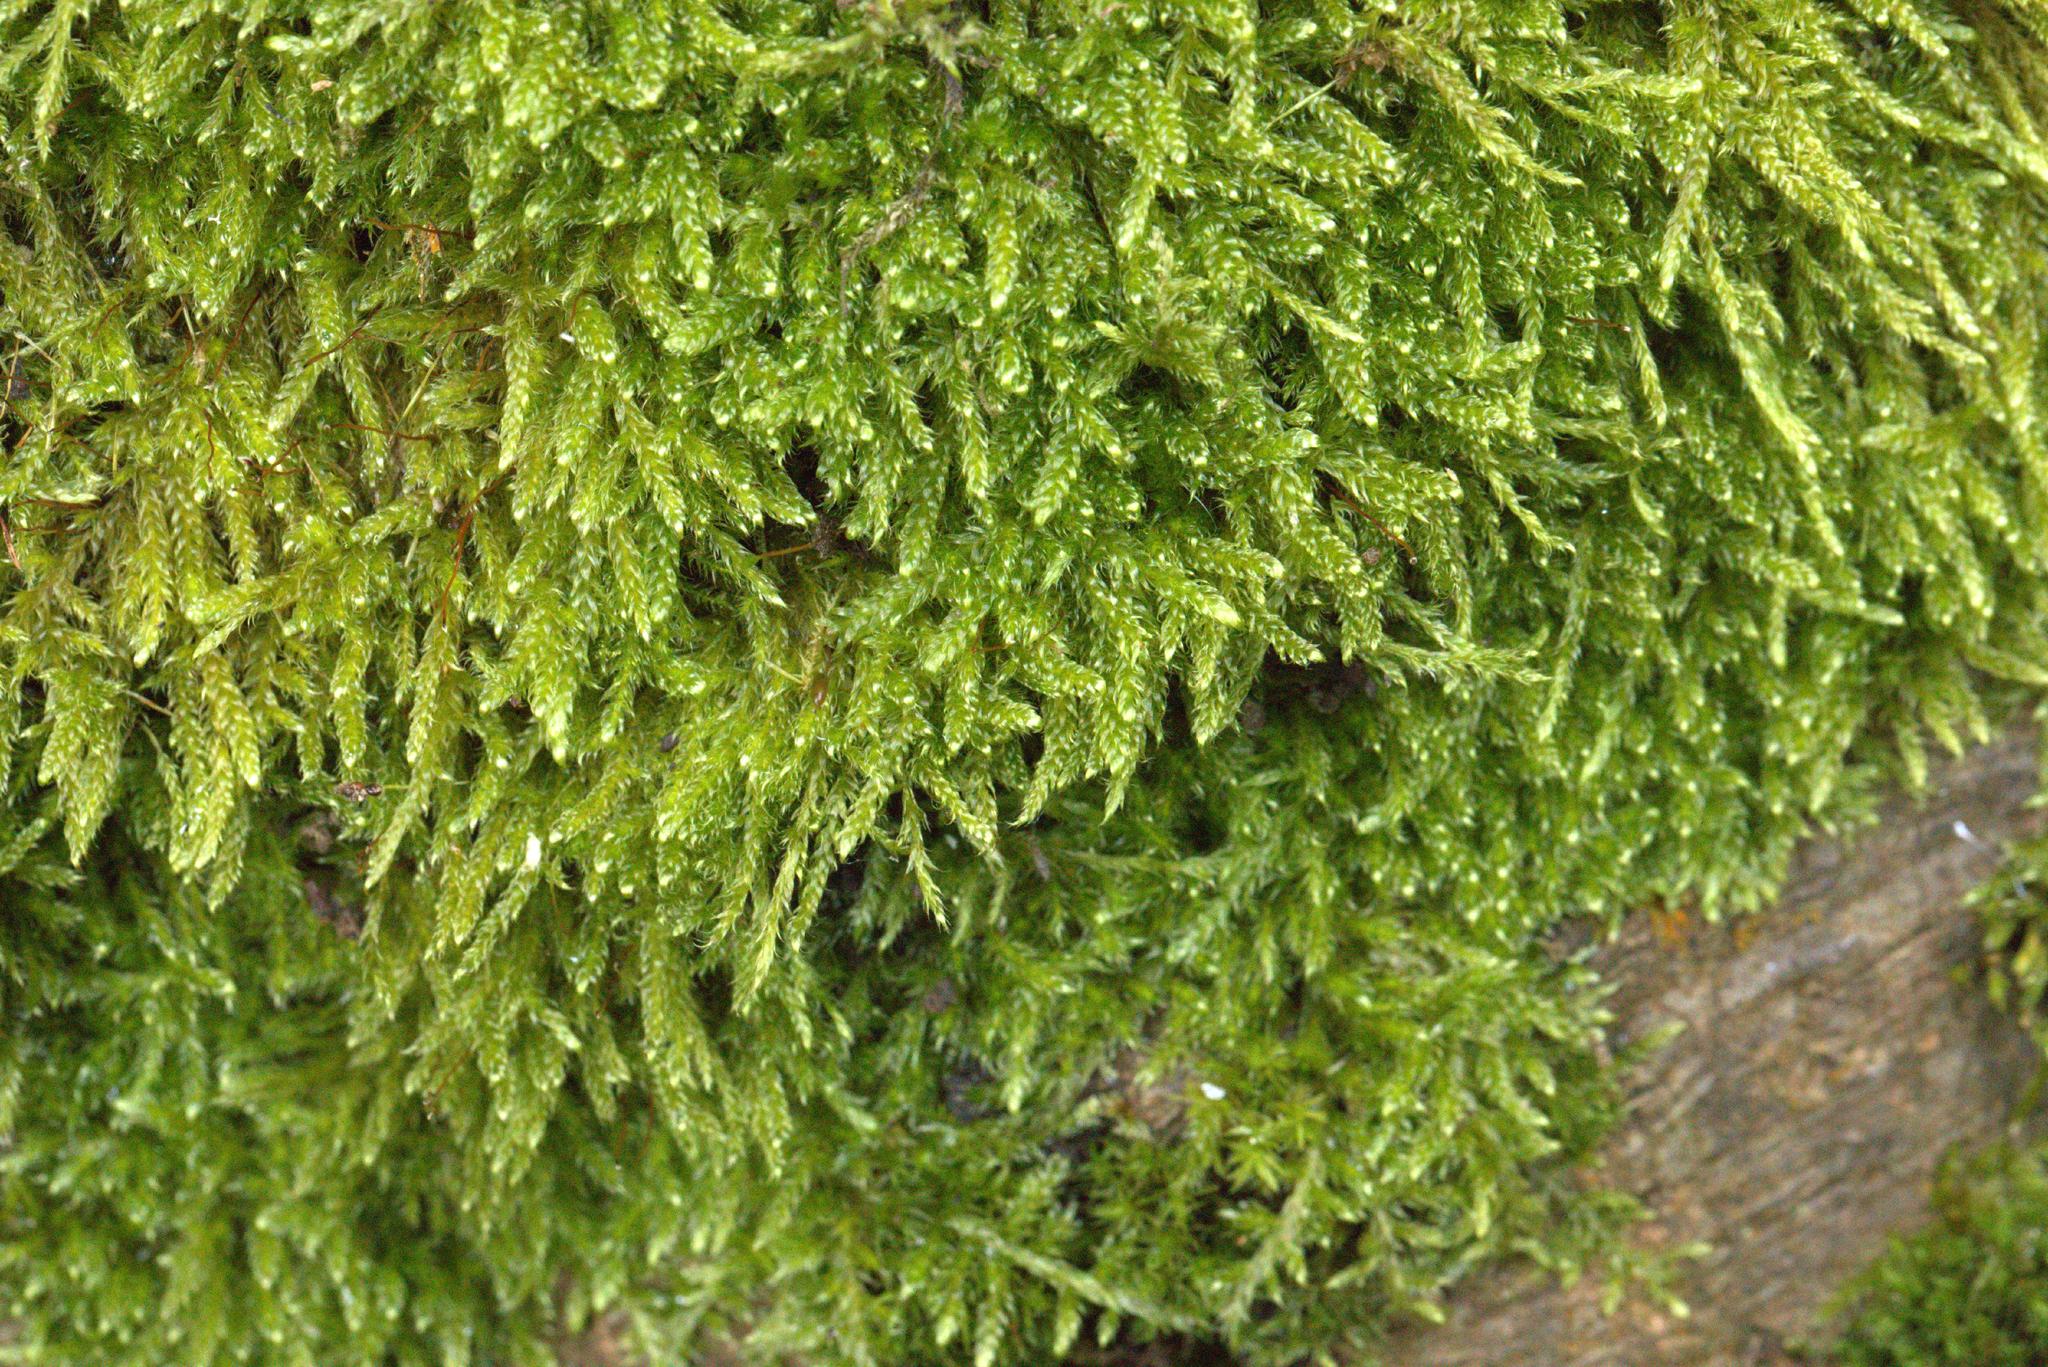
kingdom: Plantae
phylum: Bryophyta
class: Bryopsida
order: Hypnales
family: Hypnaceae
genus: Hypnum
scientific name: Hypnum cupressiforme
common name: Cypress-leaved plait-moss
